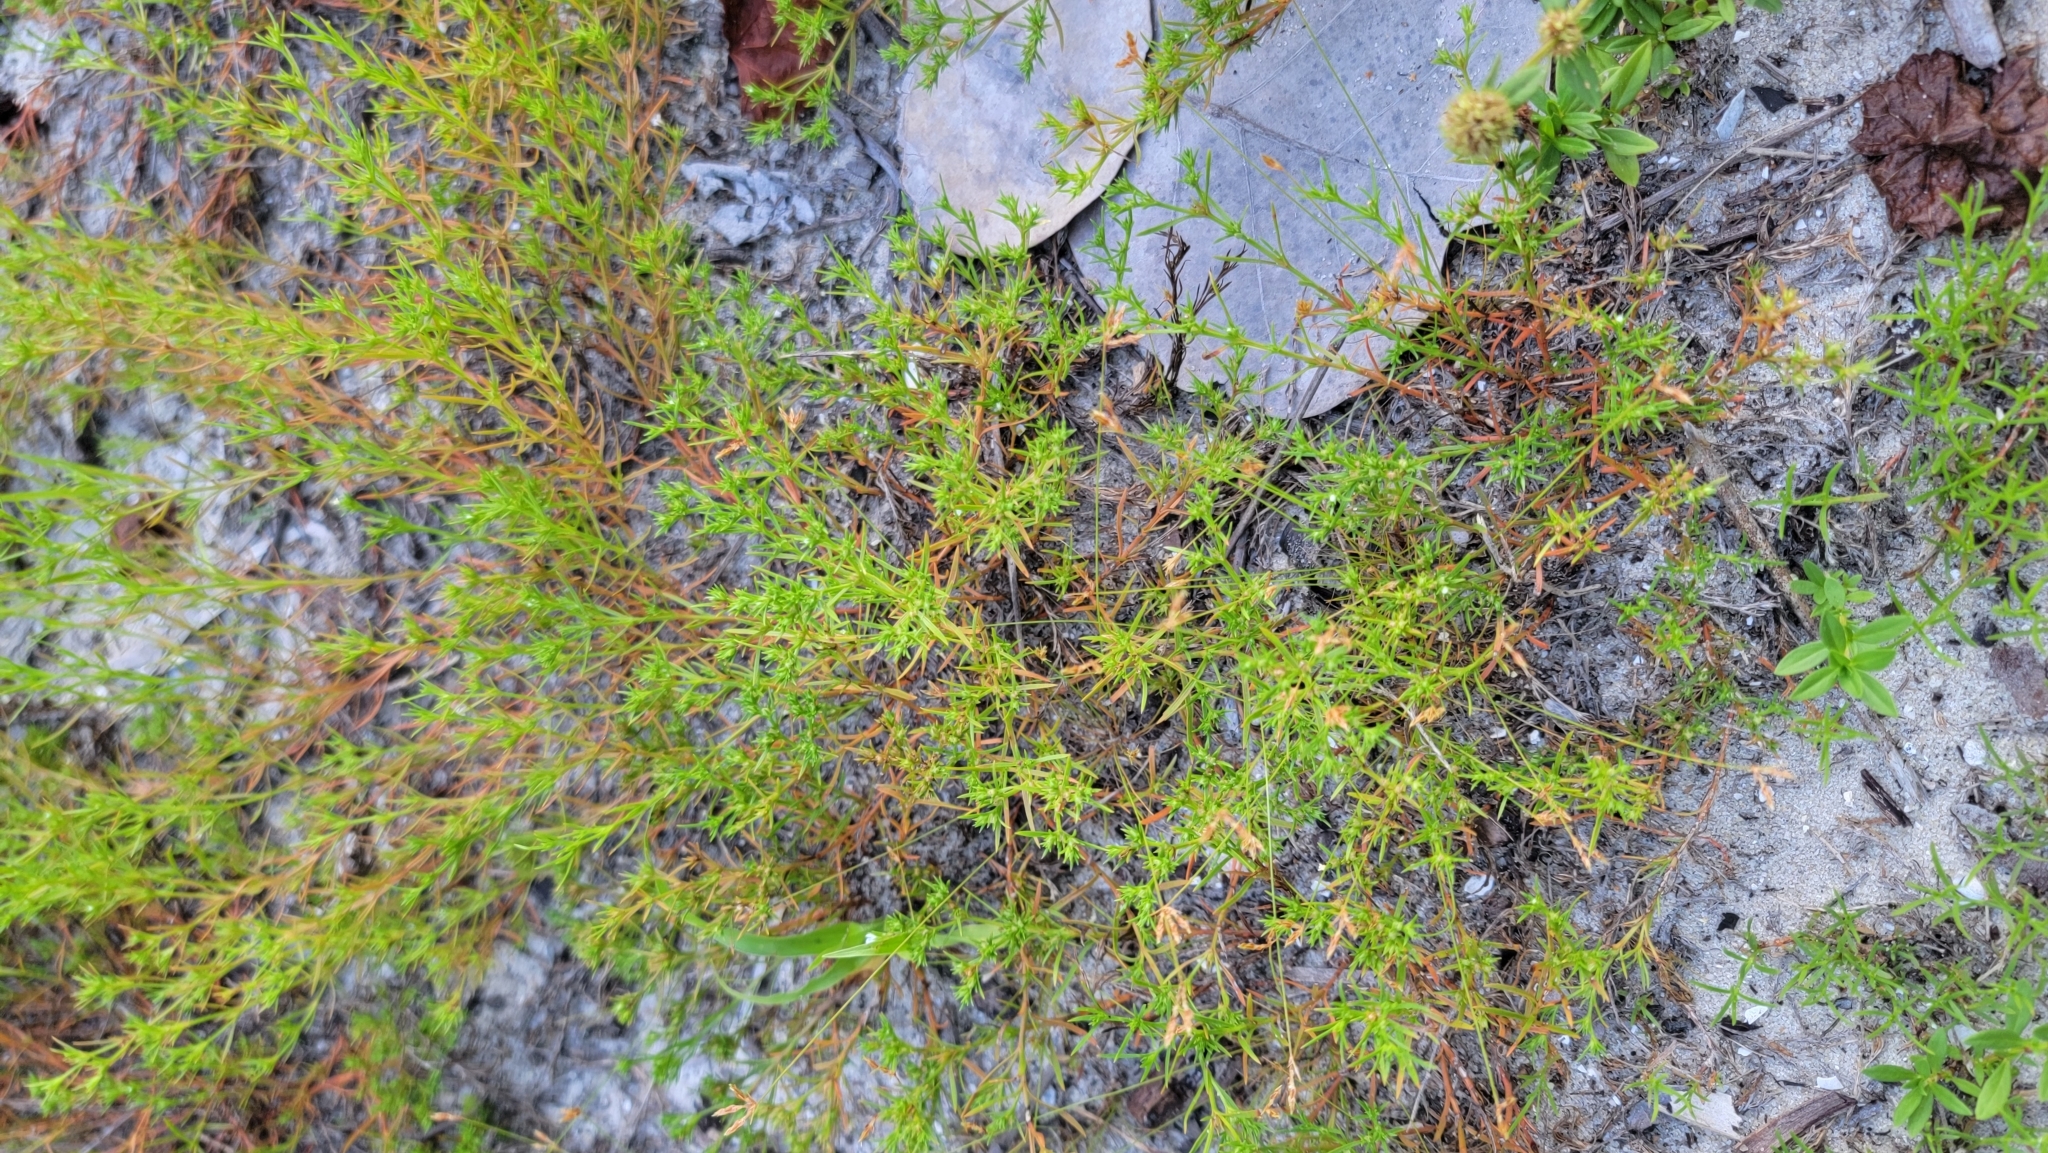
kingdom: Plantae
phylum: Tracheophyta
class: Magnoliopsida
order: Lamiales
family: Tetrachondraceae
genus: Polypremum
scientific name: Polypremum procumbens
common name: Juniper-leaf
